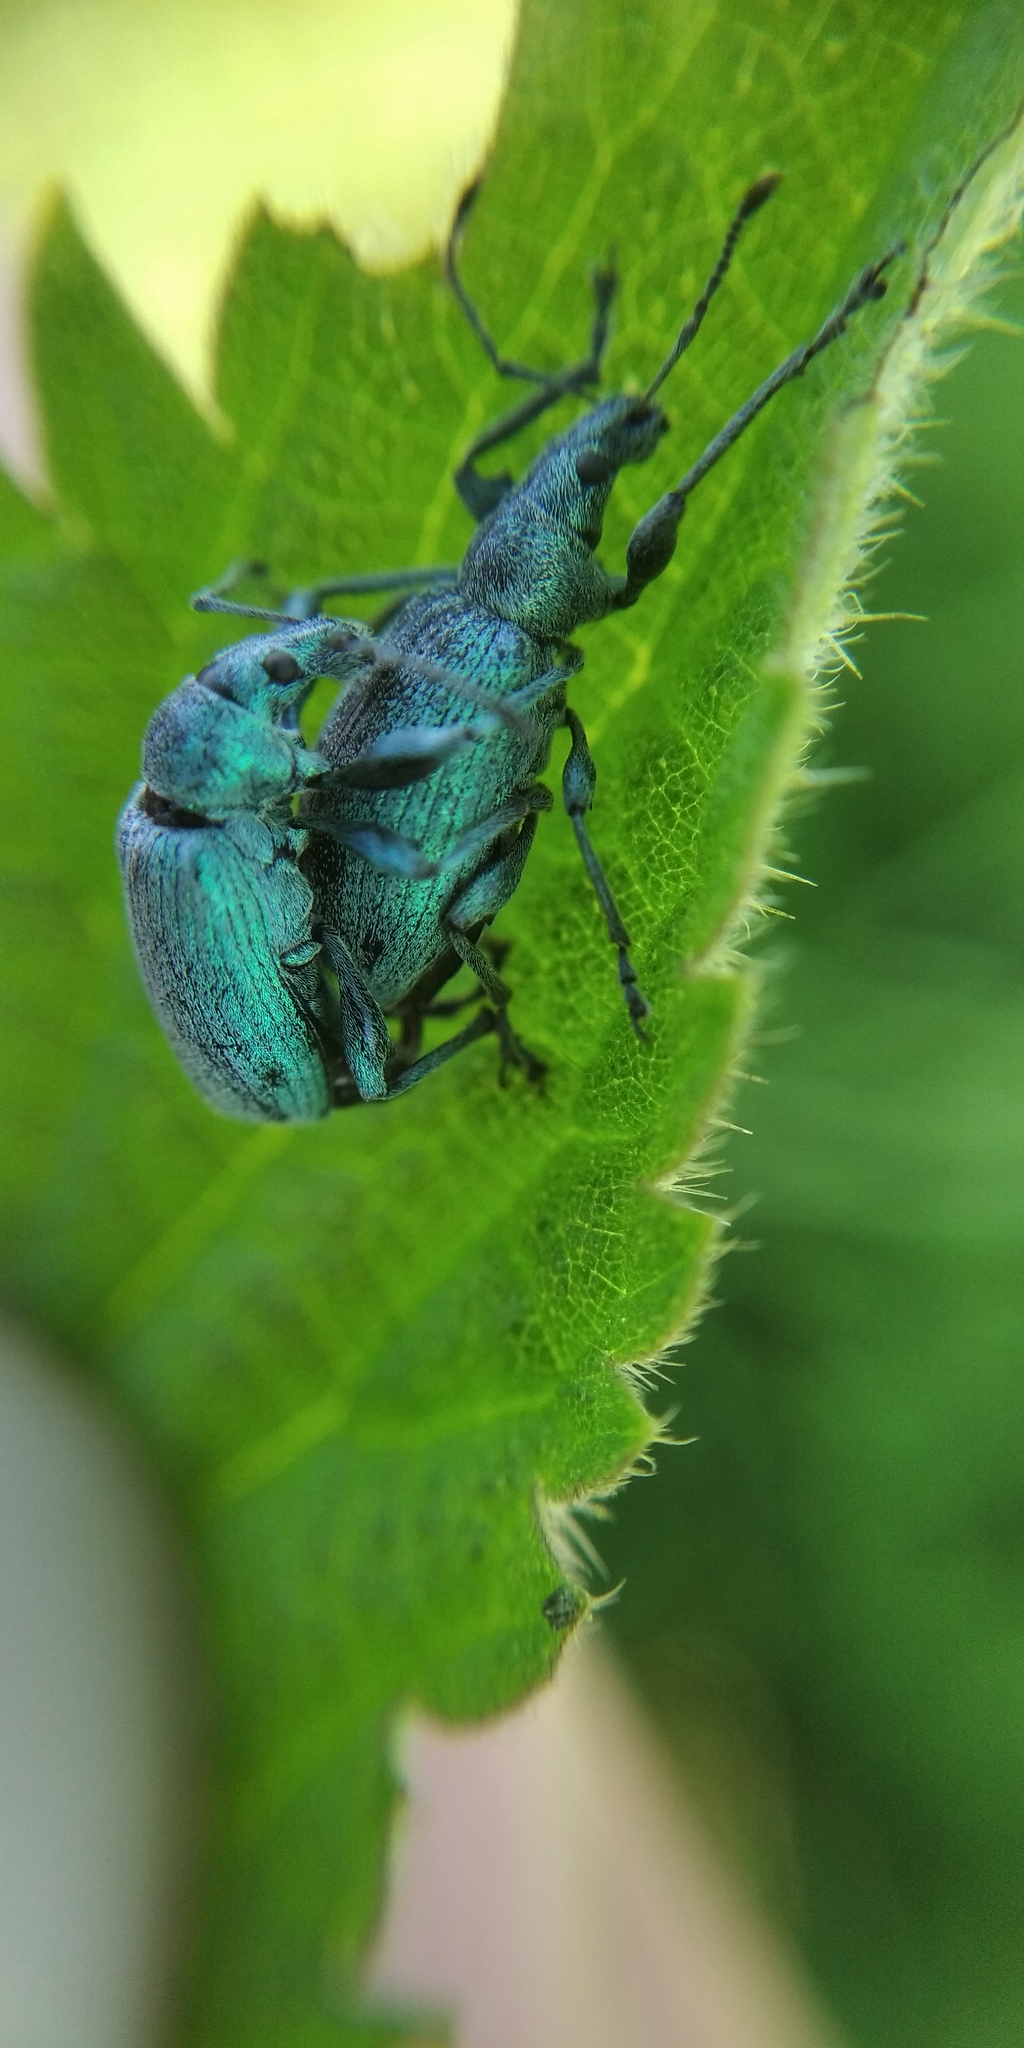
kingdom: Animalia
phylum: Arthropoda
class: Insecta
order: Coleoptera
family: Curculionidae
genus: Phyllobius
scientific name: Phyllobius pomaceus
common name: Green nettle weevil
